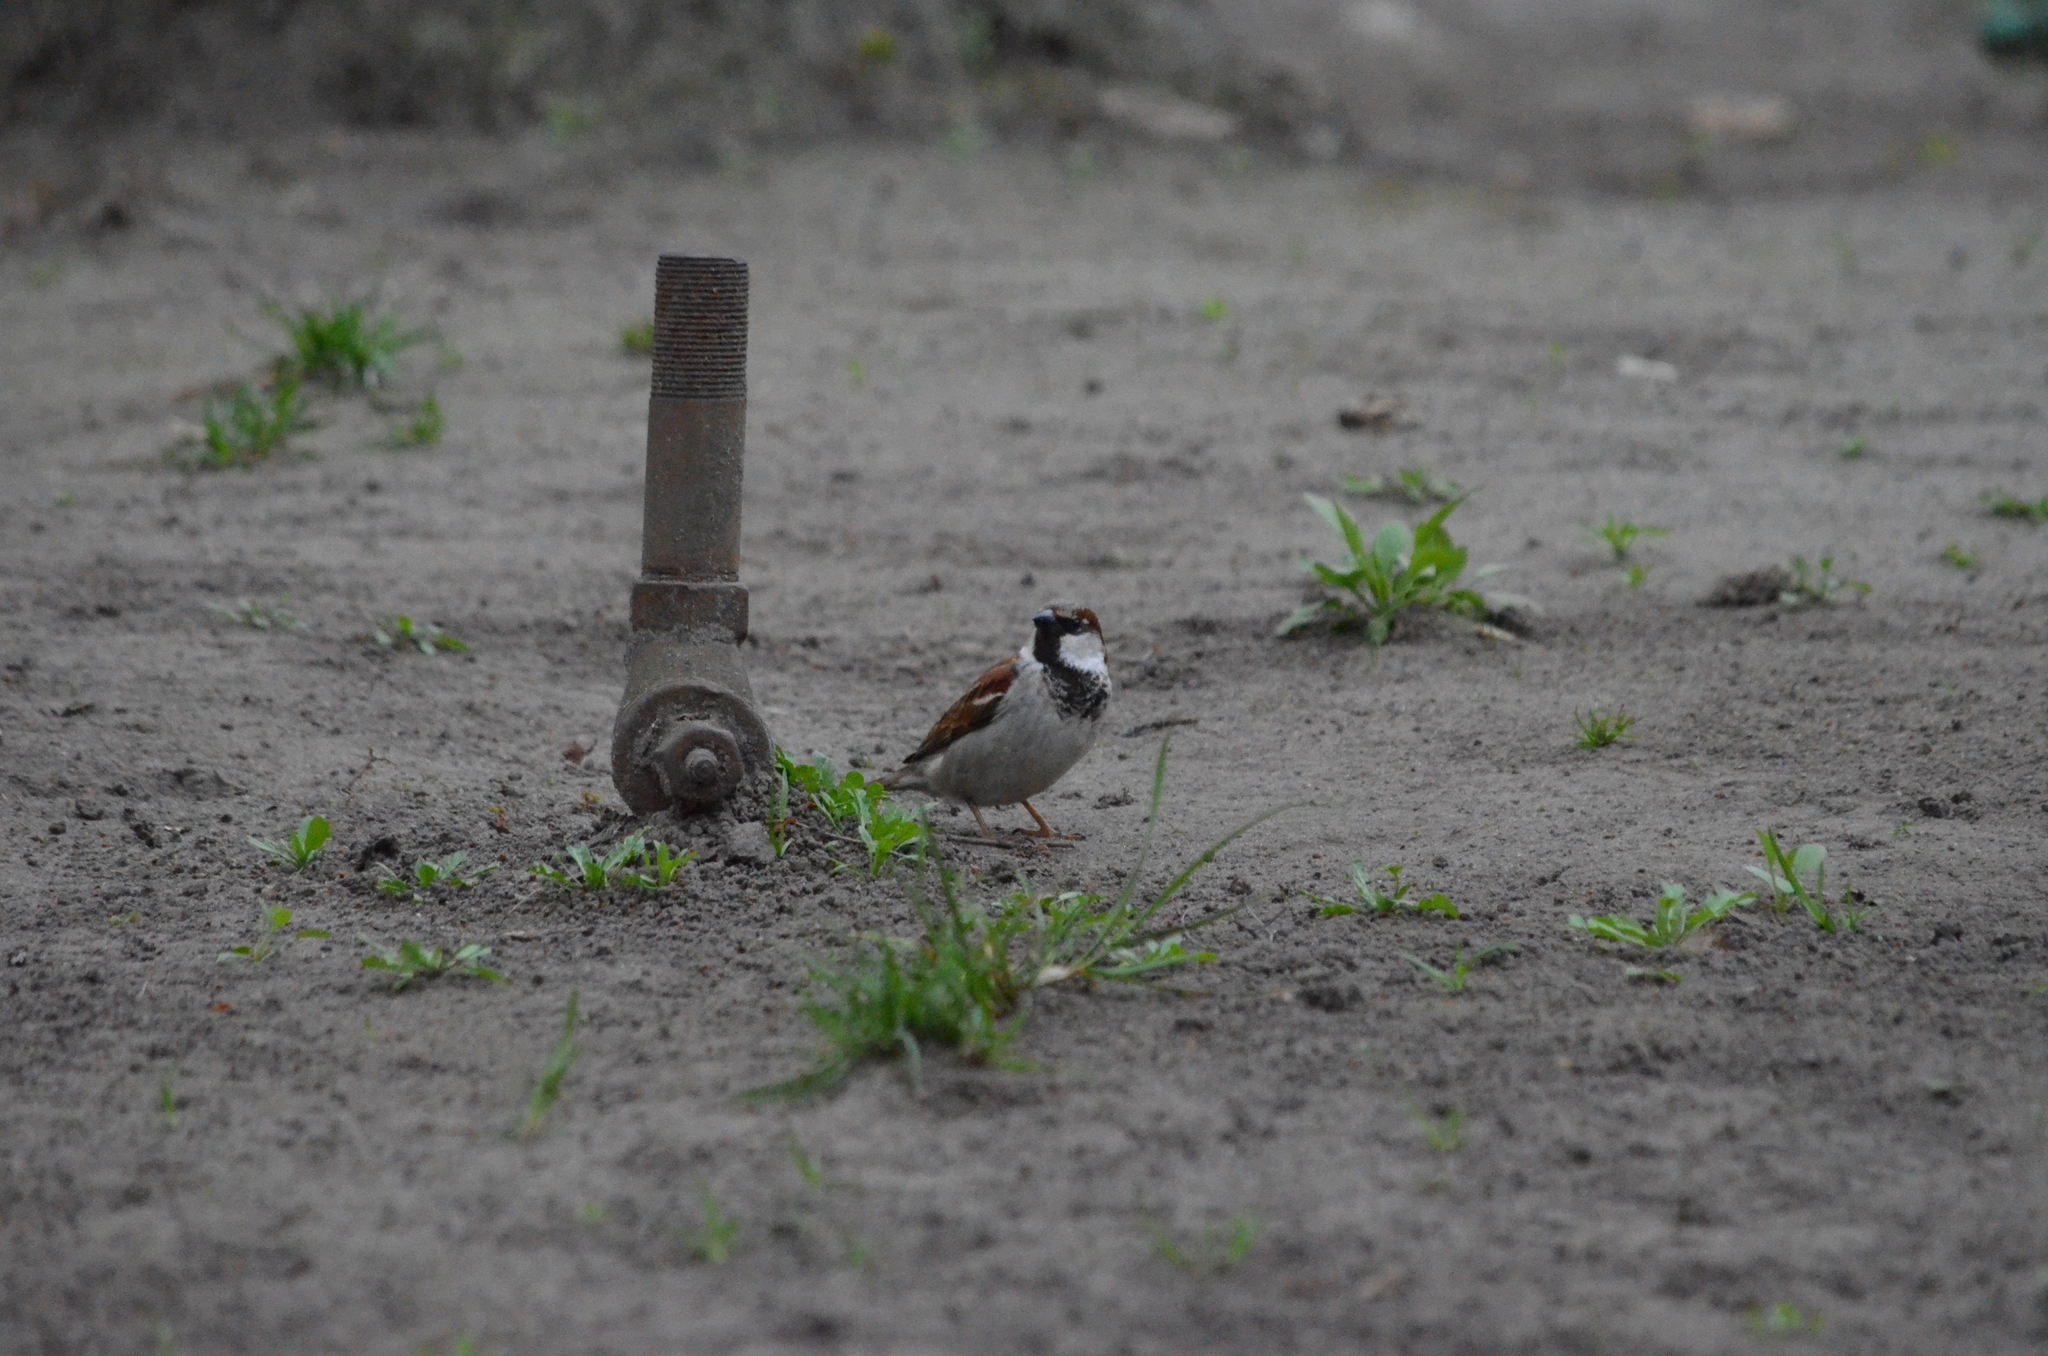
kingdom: Animalia
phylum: Chordata
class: Aves
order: Passeriformes
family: Passeridae
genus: Passer
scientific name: Passer domesticus
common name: House sparrow
